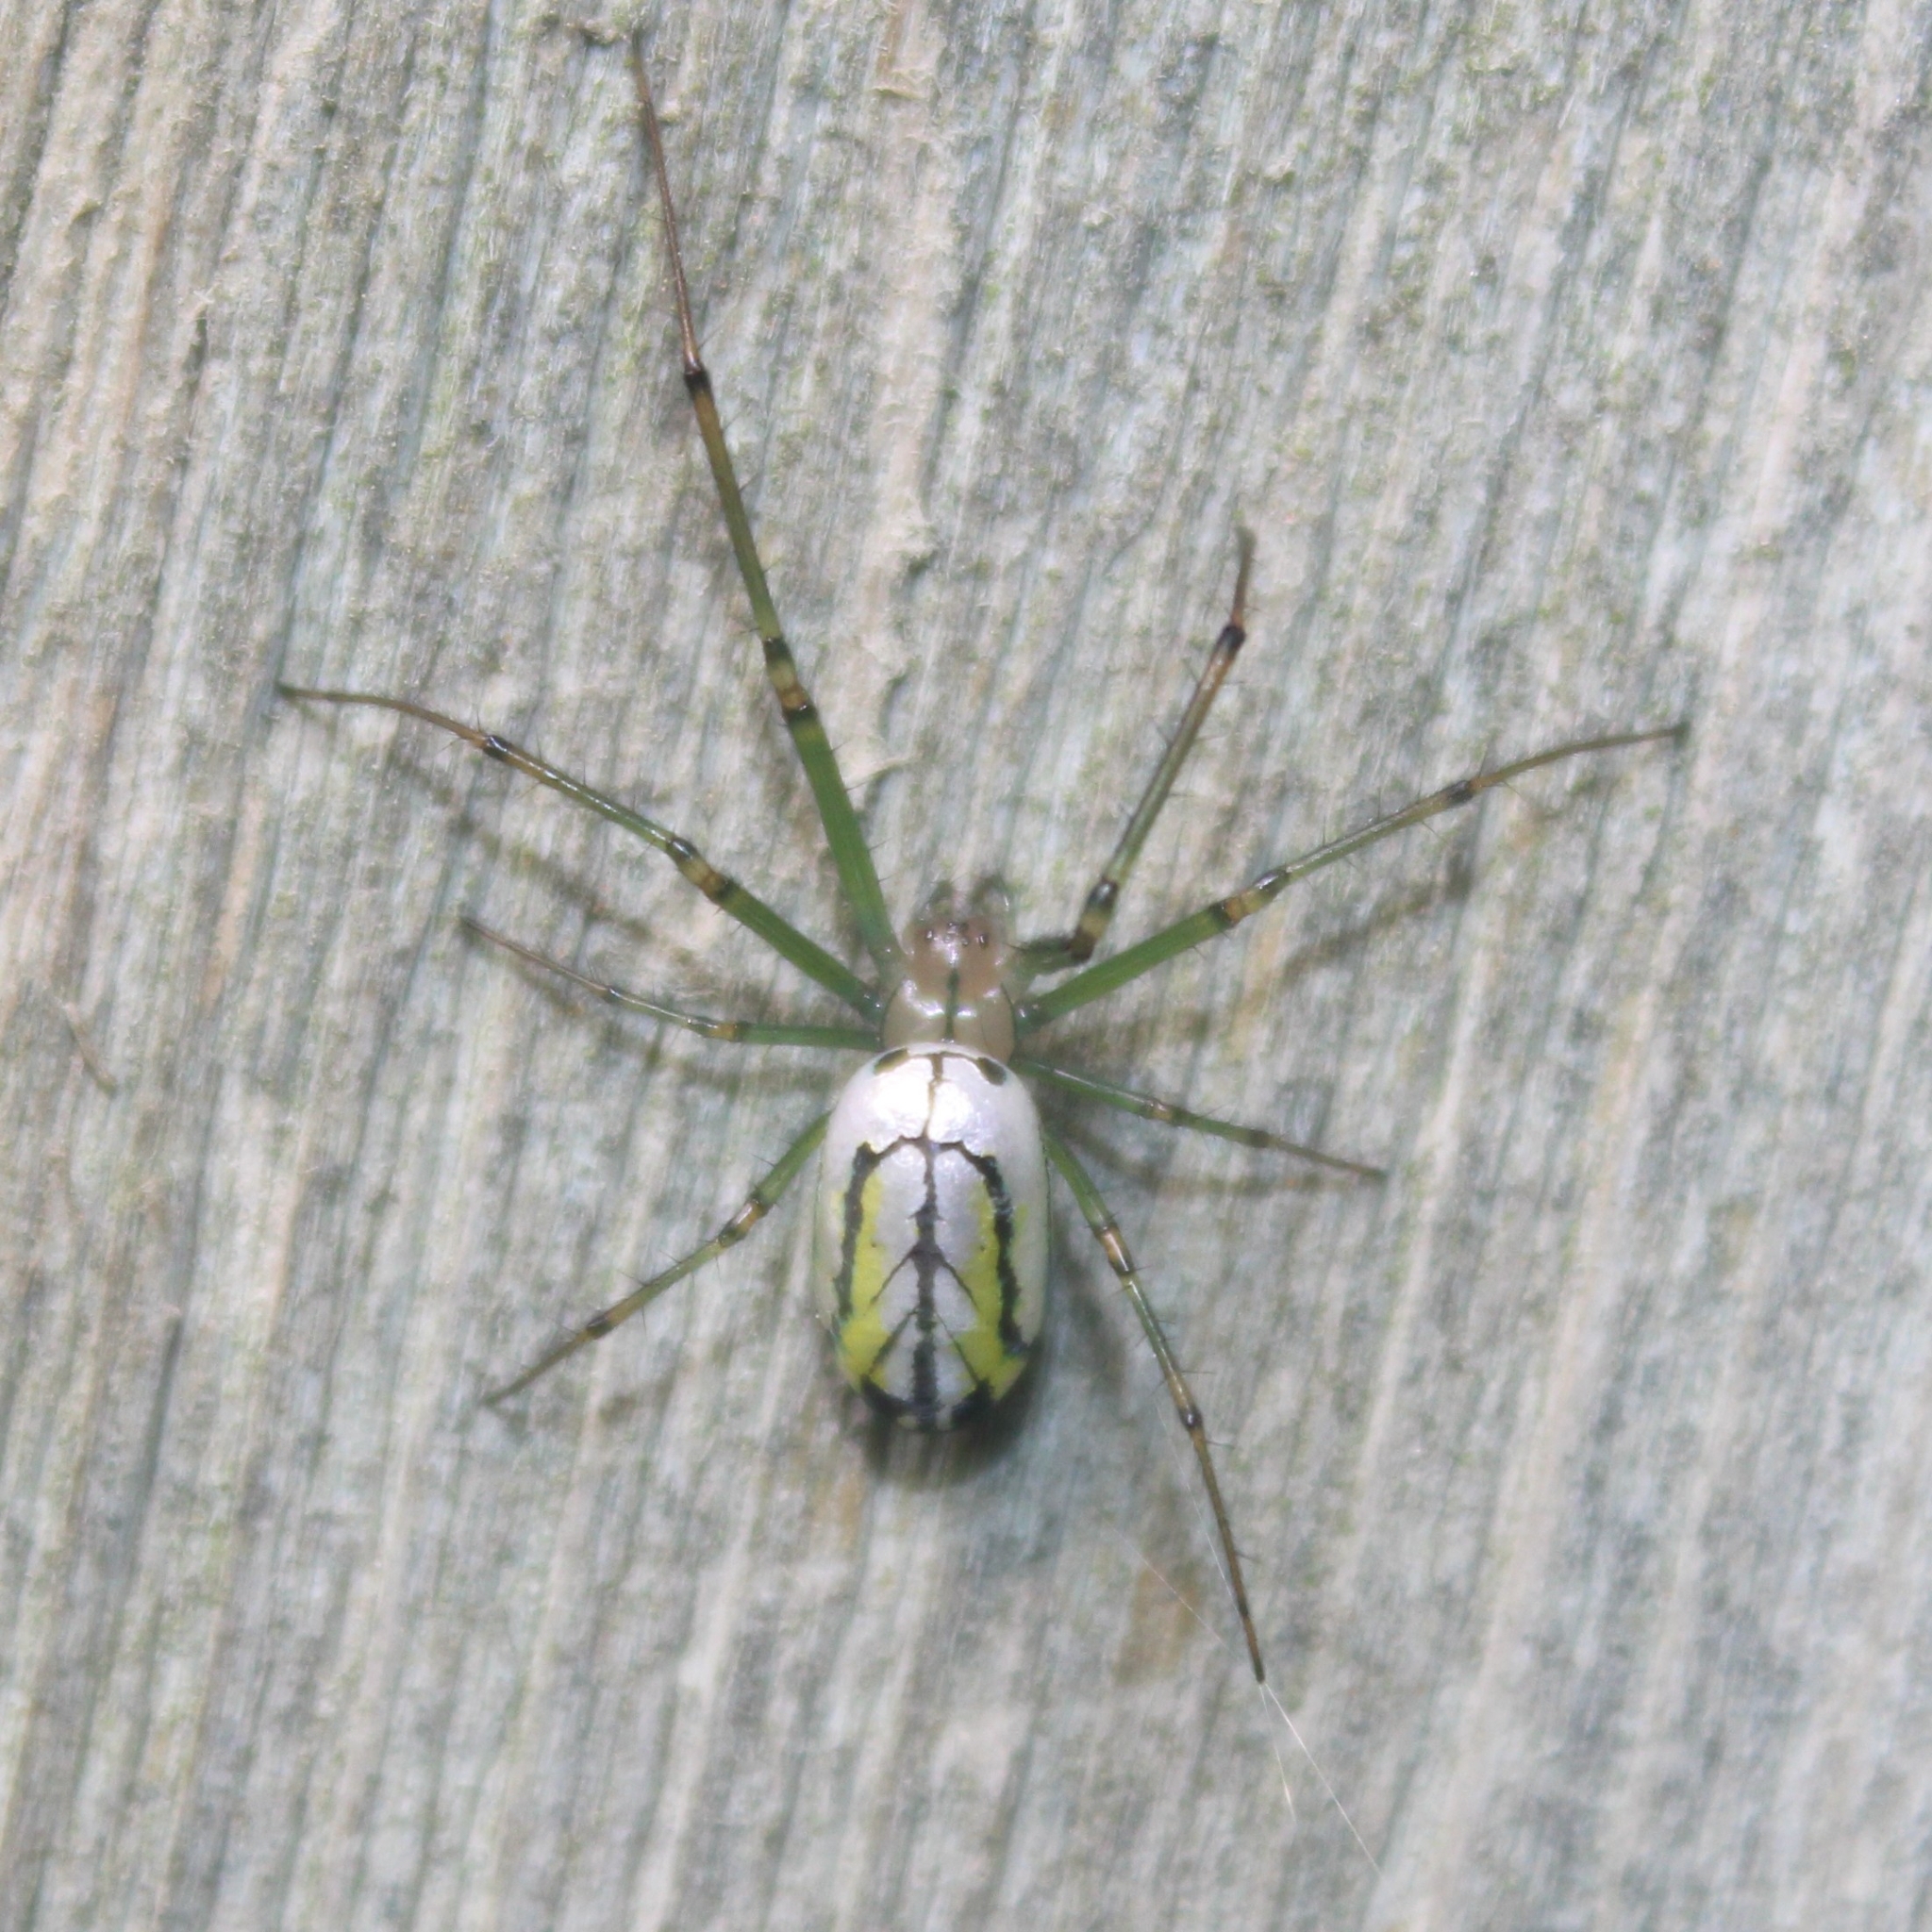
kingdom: Animalia
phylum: Arthropoda
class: Arachnida
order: Araneae
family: Tetragnathidae
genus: Leucauge
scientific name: Leucauge venusta
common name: Longjawed orb weavers
